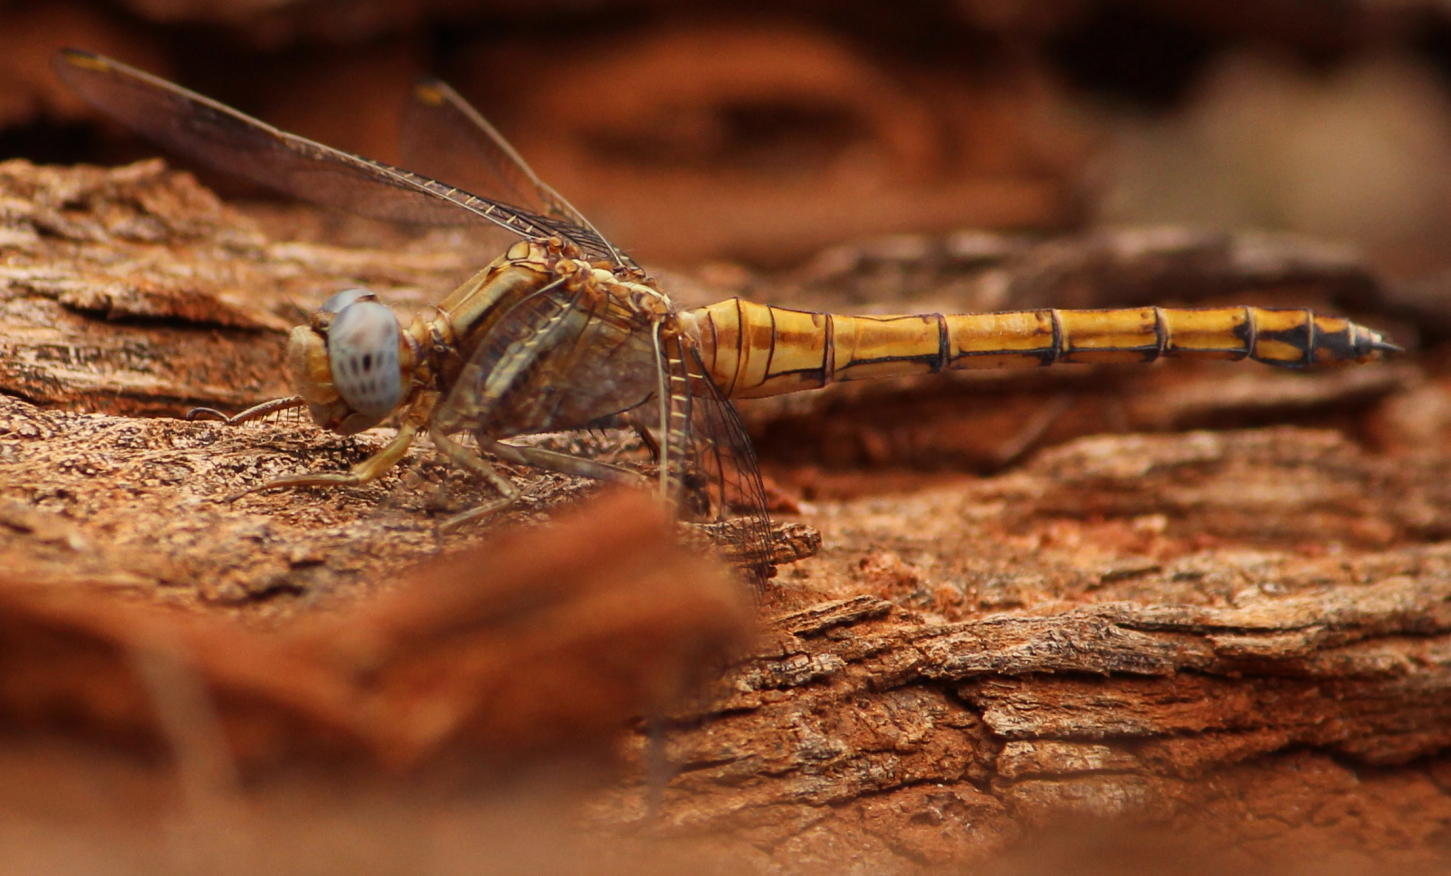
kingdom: Animalia
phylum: Arthropoda
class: Insecta
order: Odonata
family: Libellulidae
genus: Orthetrum
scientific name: Orthetrum chrysostigma
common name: Epaulet skimmer
